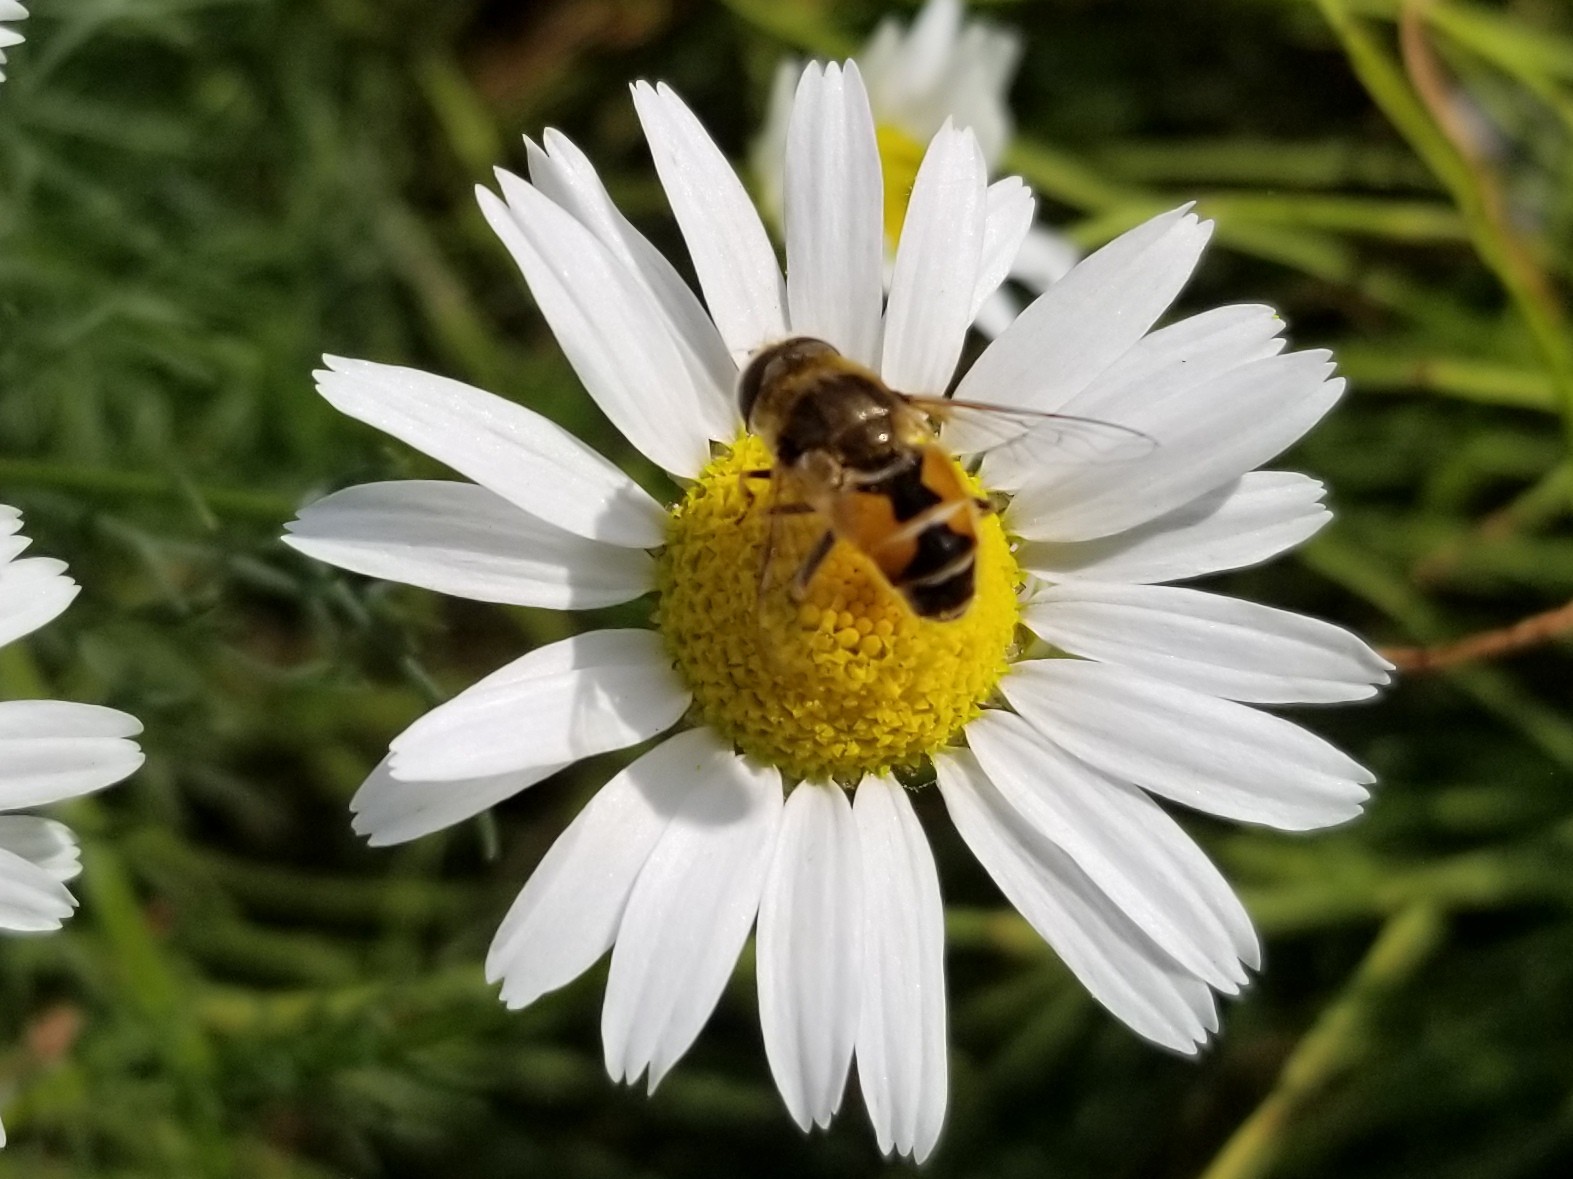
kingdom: Animalia
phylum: Arthropoda
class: Insecta
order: Diptera
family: Syrphidae
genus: Eristalis
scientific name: Eristalis tenax
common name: Drone fly
